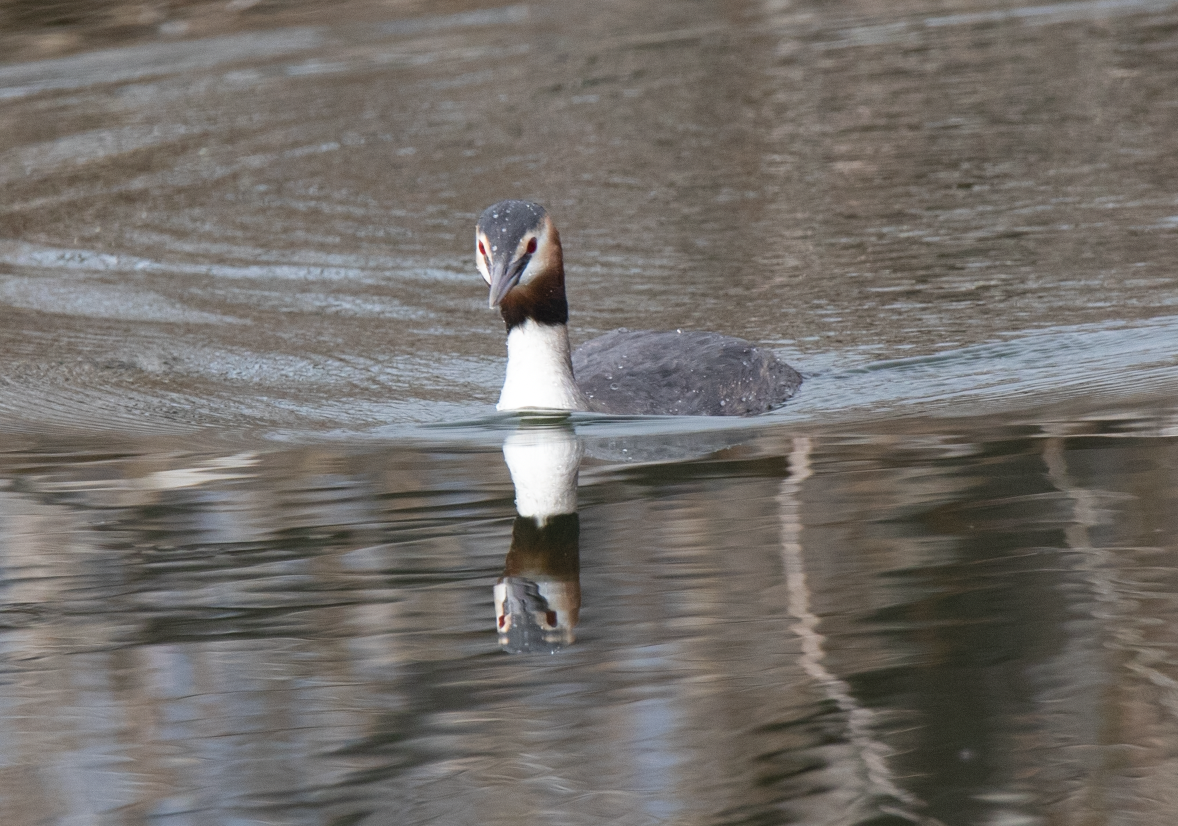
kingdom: Animalia
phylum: Chordata
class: Aves
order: Podicipediformes
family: Podicipedidae
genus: Podiceps
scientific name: Podiceps cristatus
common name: Great crested grebe
